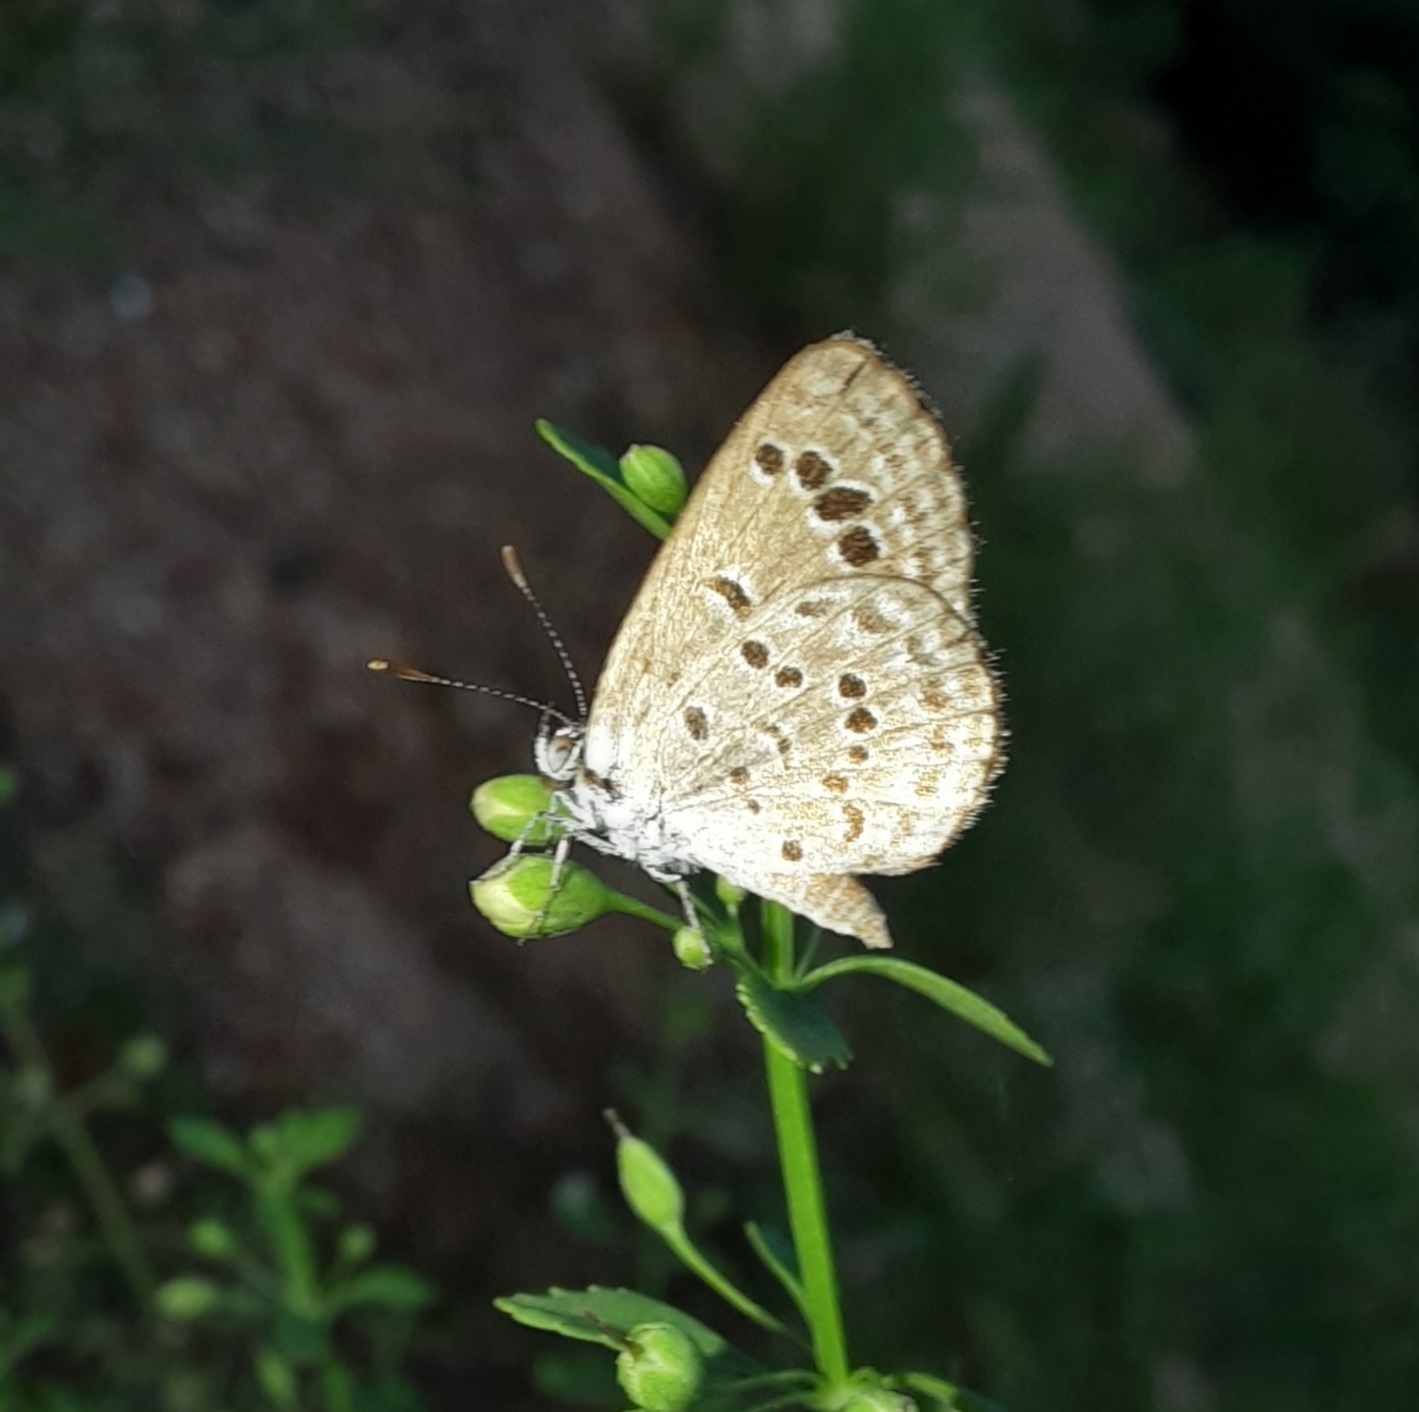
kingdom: Animalia
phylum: Arthropoda
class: Insecta
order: Lepidoptera
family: Lycaenidae
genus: Zizina
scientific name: Zizina otis
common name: Lesser grass blue
